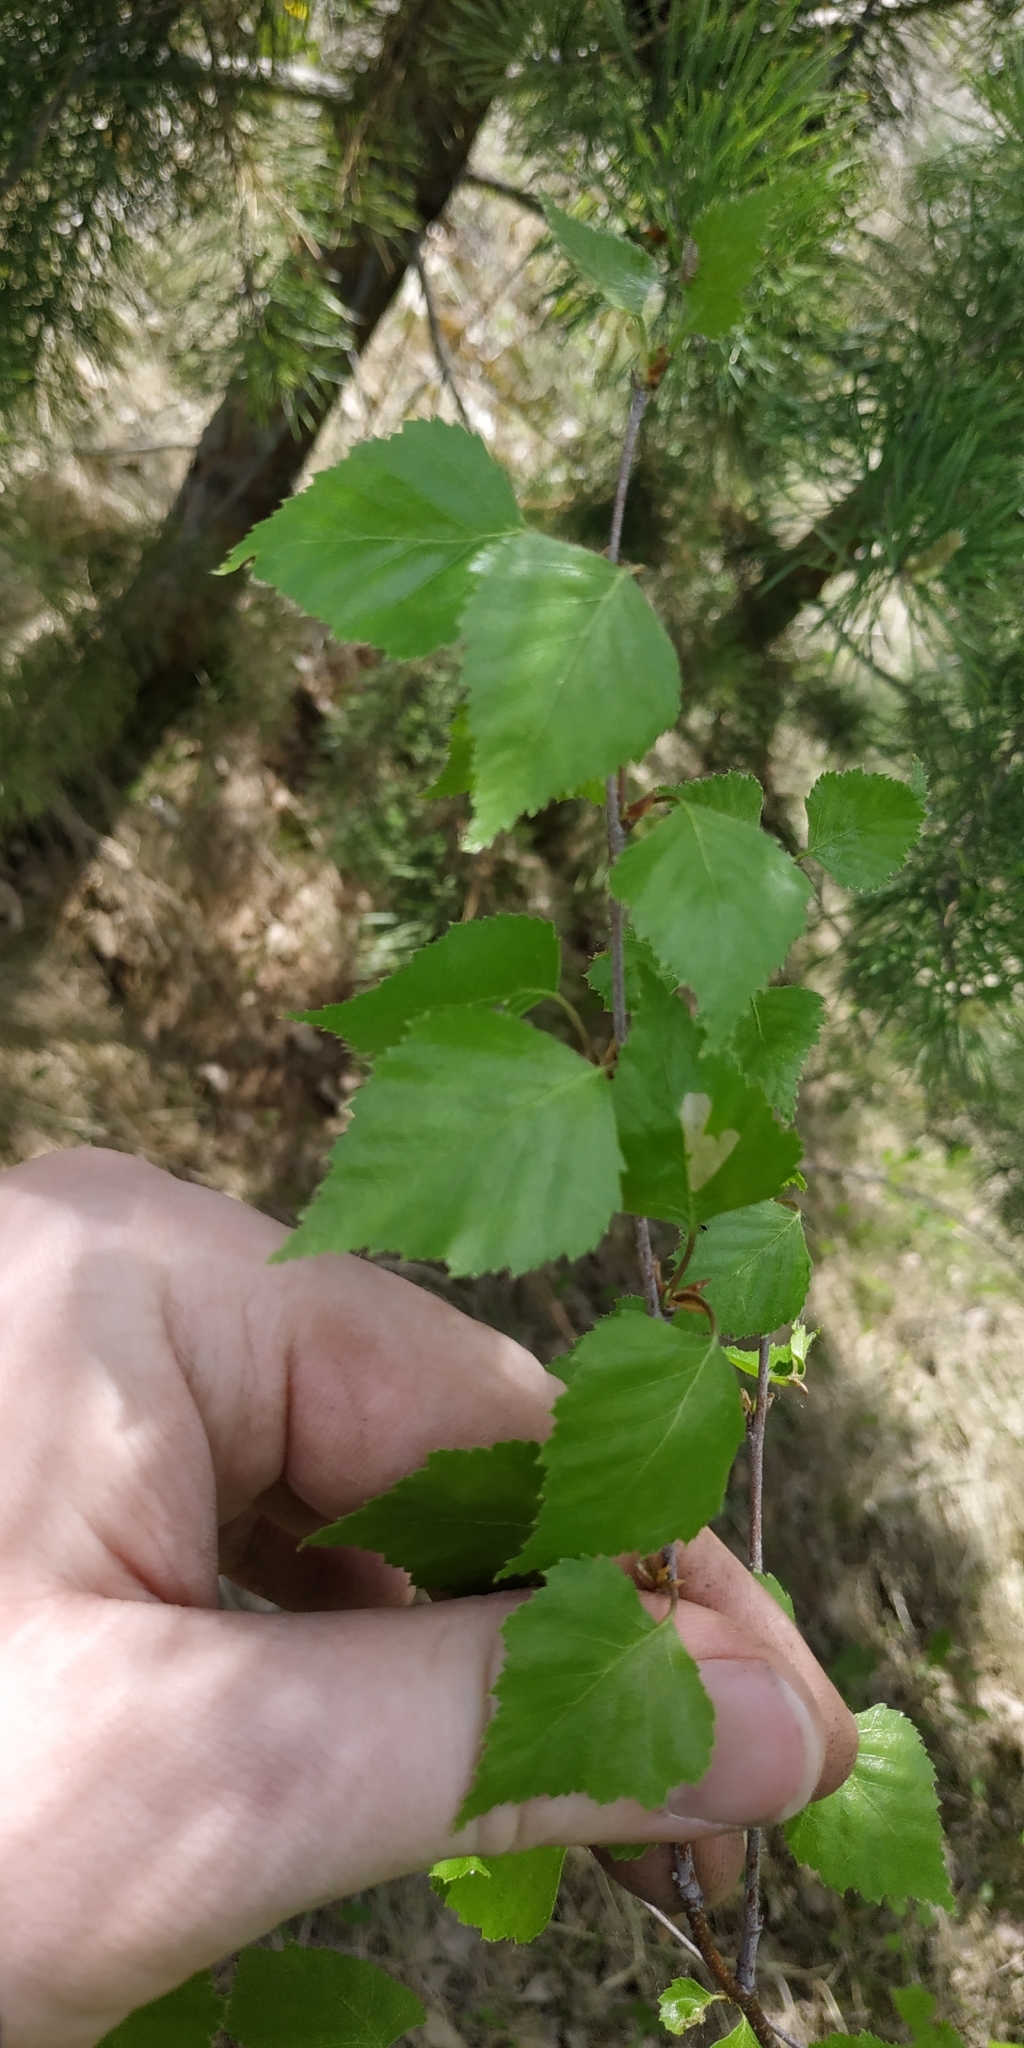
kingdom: Plantae
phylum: Tracheophyta
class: Magnoliopsida
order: Fagales
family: Betulaceae
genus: Betula
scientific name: Betula pendula
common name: Silver birch
